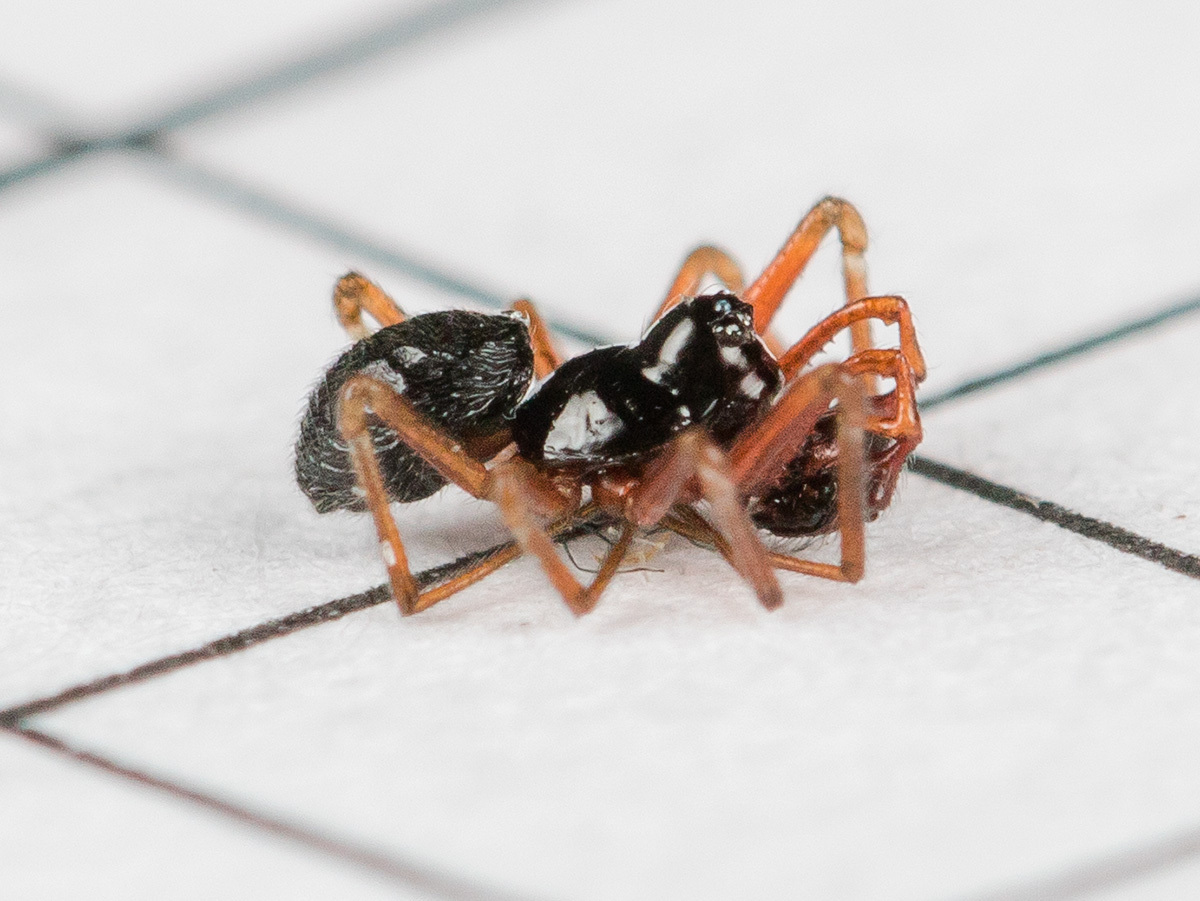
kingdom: Animalia
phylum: Arthropoda
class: Arachnida
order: Araneae
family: Linyphiidae
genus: Erigone
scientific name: Erigone dentipalpis
